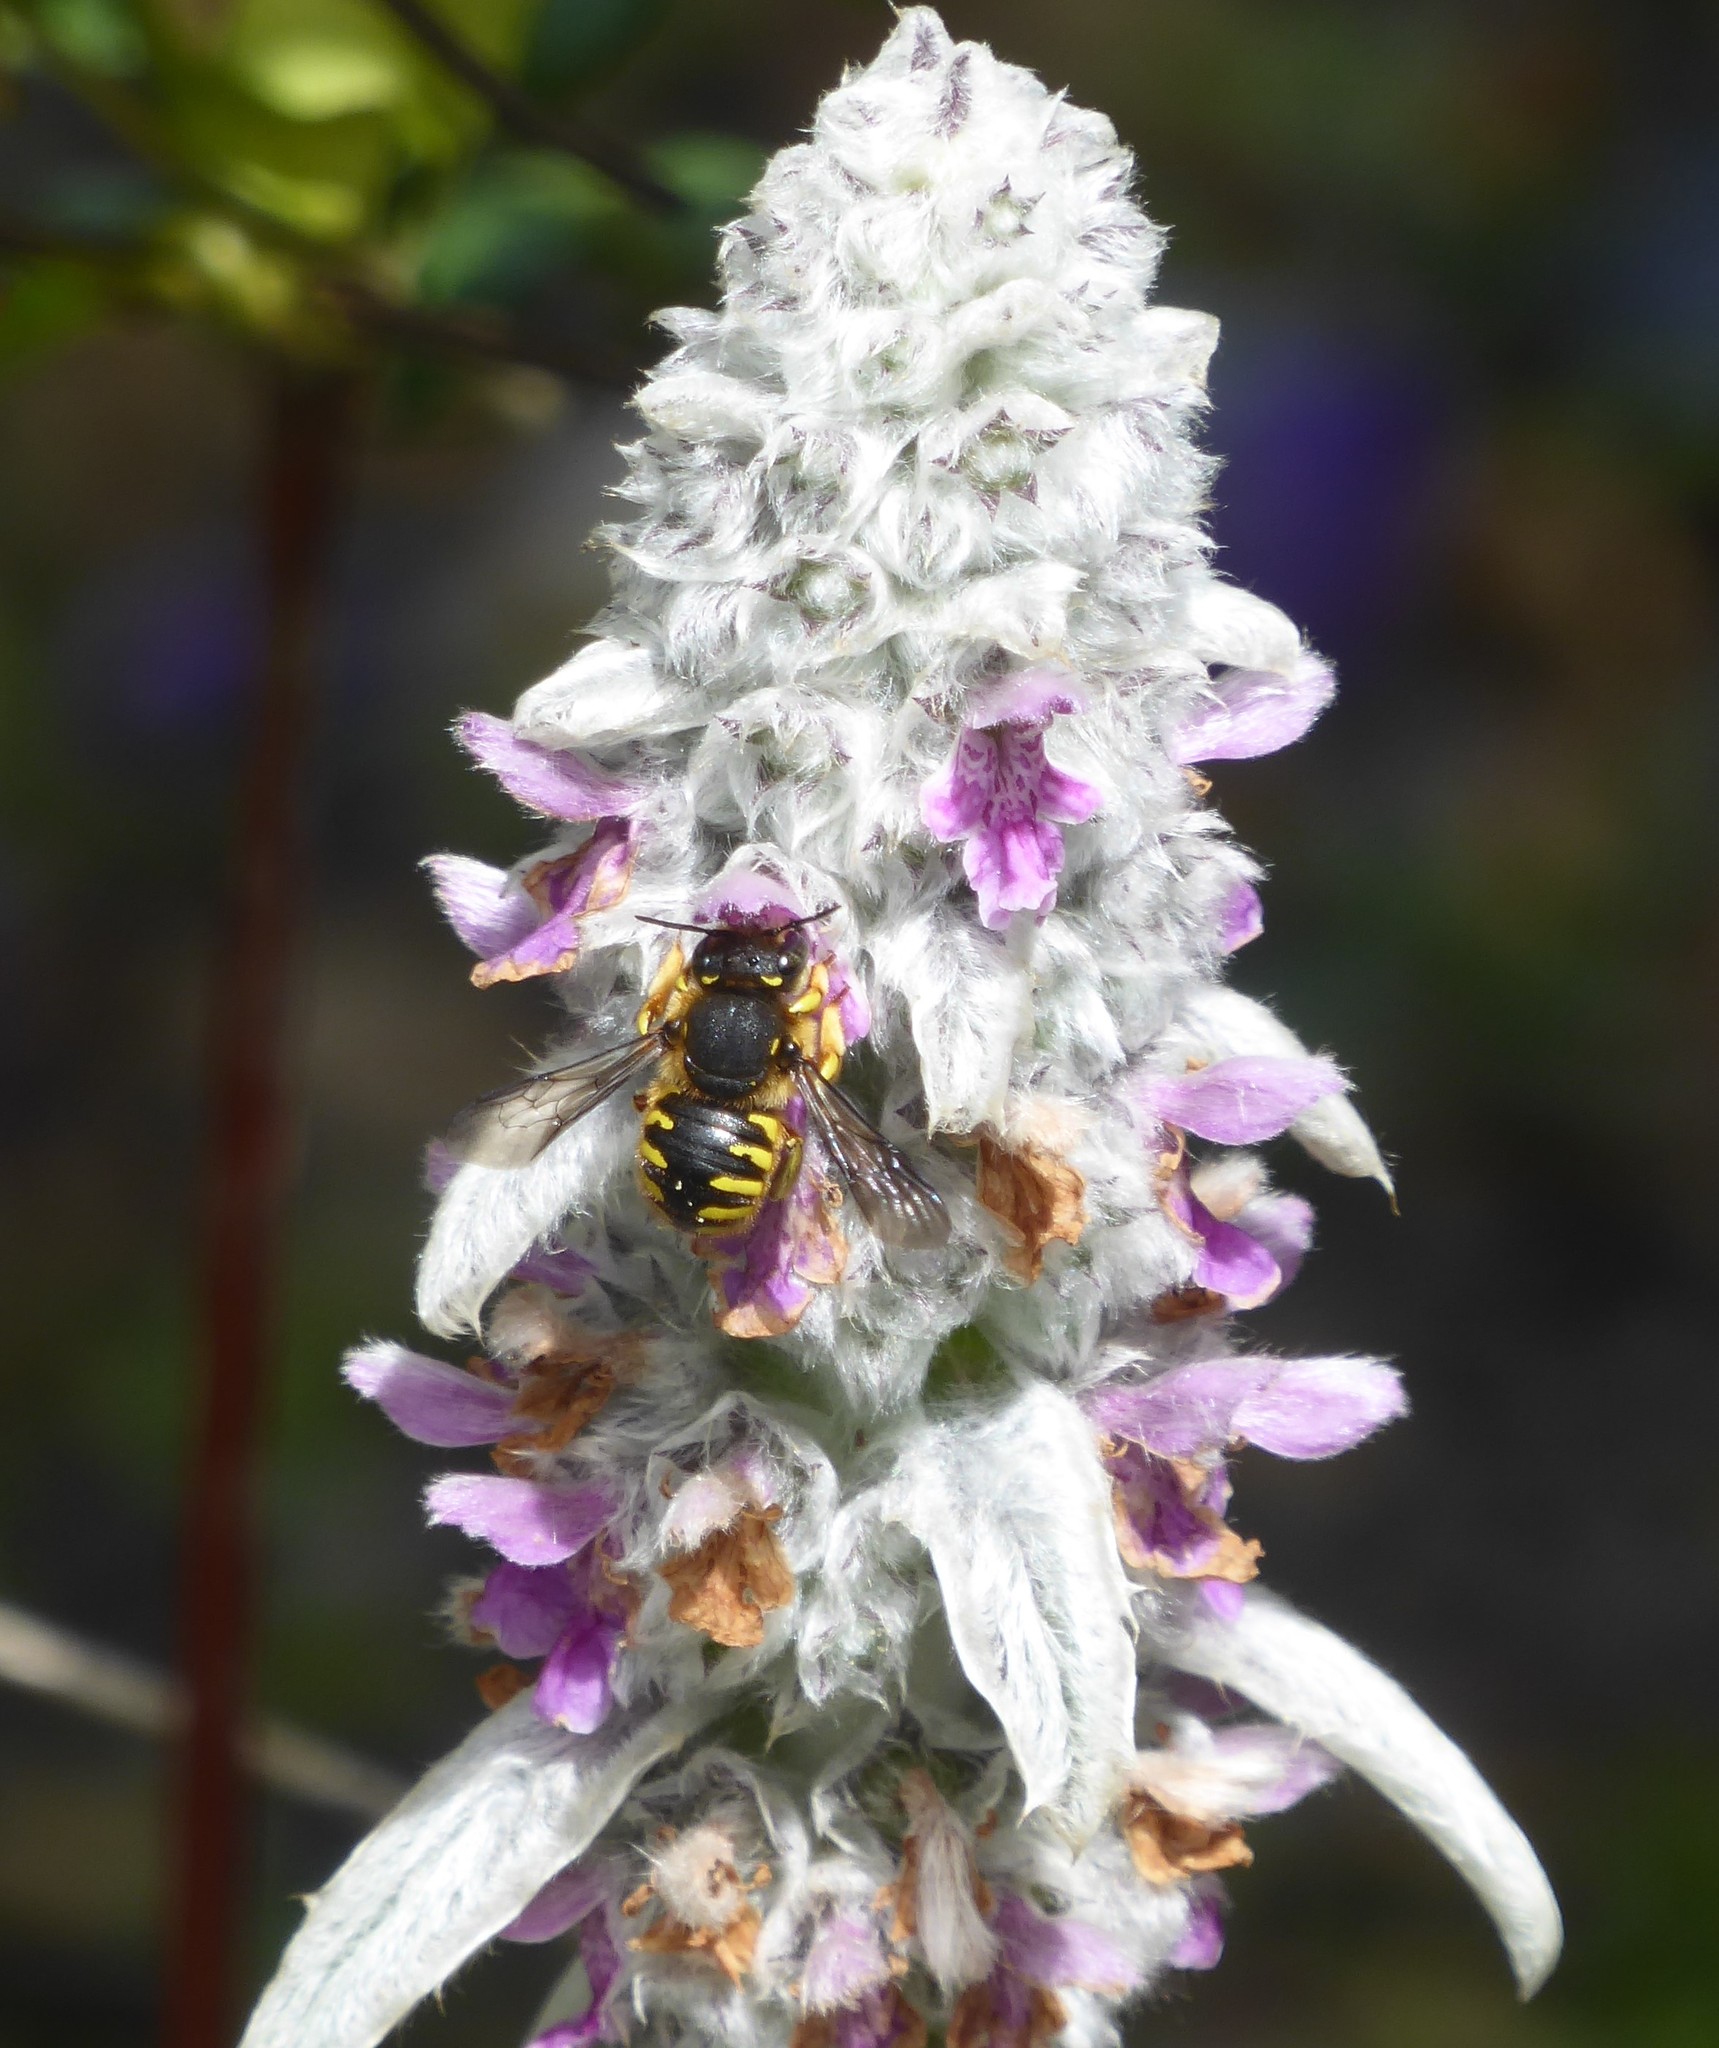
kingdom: Animalia
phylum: Arthropoda
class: Insecta
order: Hymenoptera
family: Megachilidae
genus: Anthidium
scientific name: Anthidium manicatum
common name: Wool carder bee
